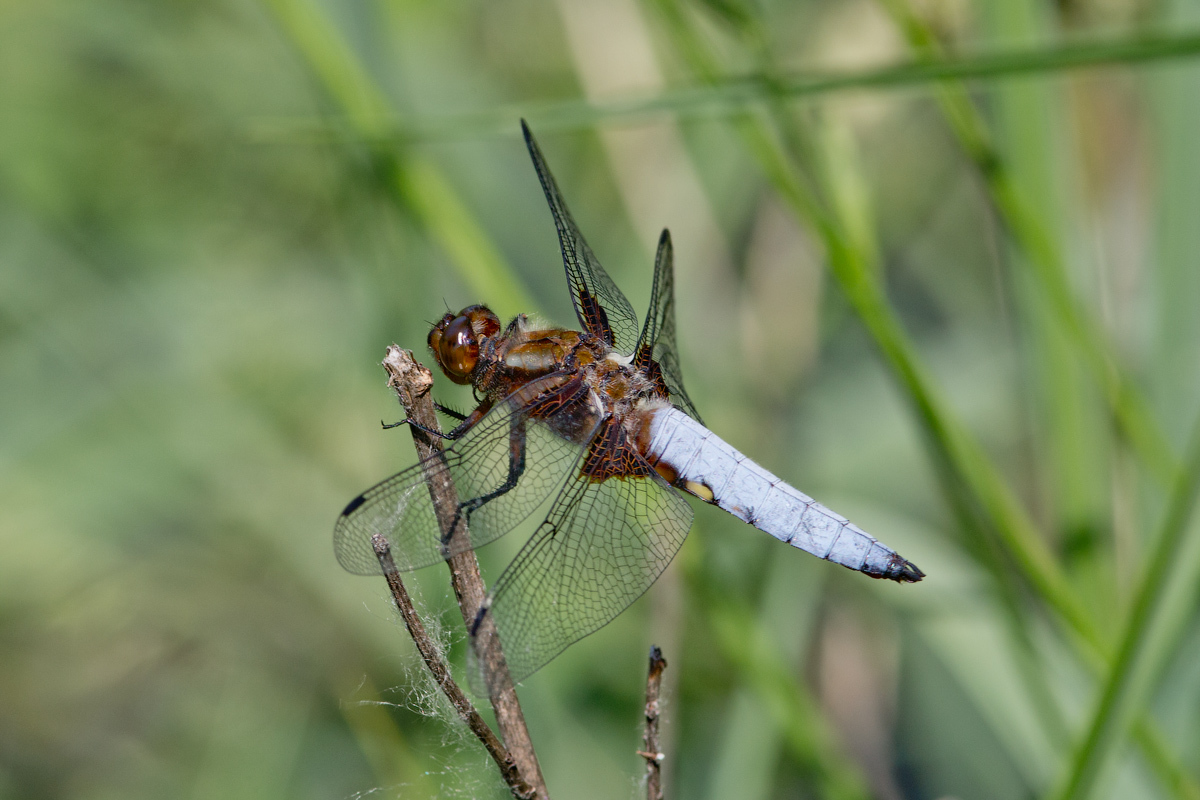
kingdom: Animalia
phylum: Arthropoda
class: Insecta
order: Odonata
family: Libellulidae
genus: Libellula
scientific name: Libellula depressa
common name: Broad-bodied chaser
